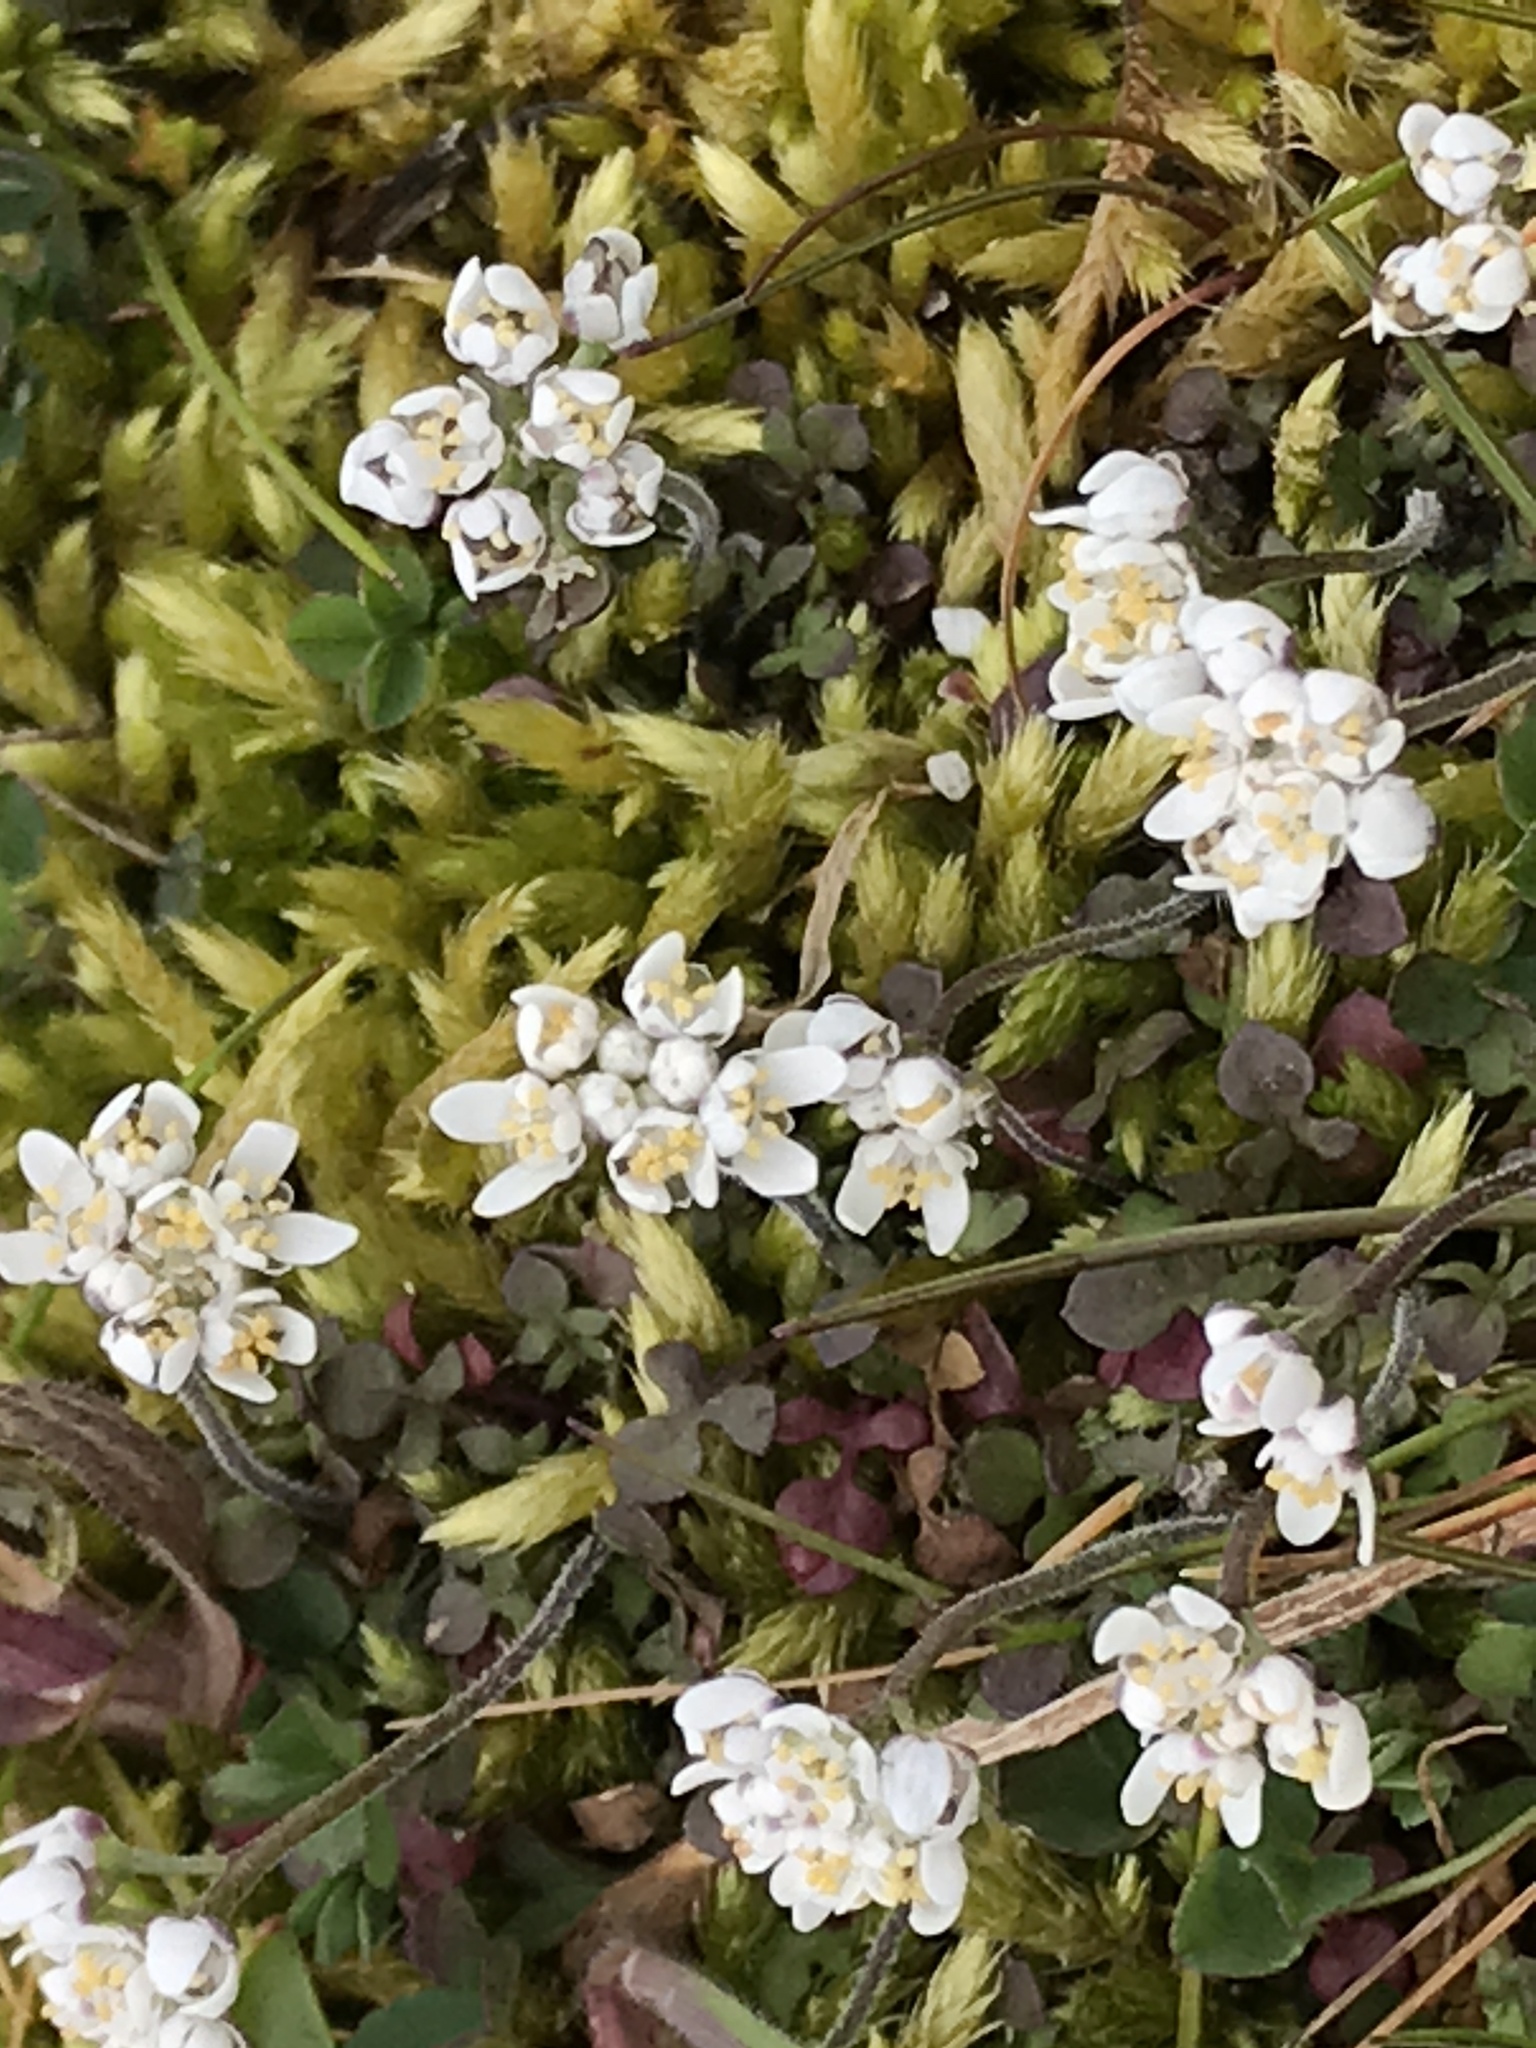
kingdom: Plantae
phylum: Tracheophyta
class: Magnoliopsida
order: Brassicales
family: Brassicaceae
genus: Teesdalia
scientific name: Teesdalia nudicaulis
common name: Shepherd's cress
